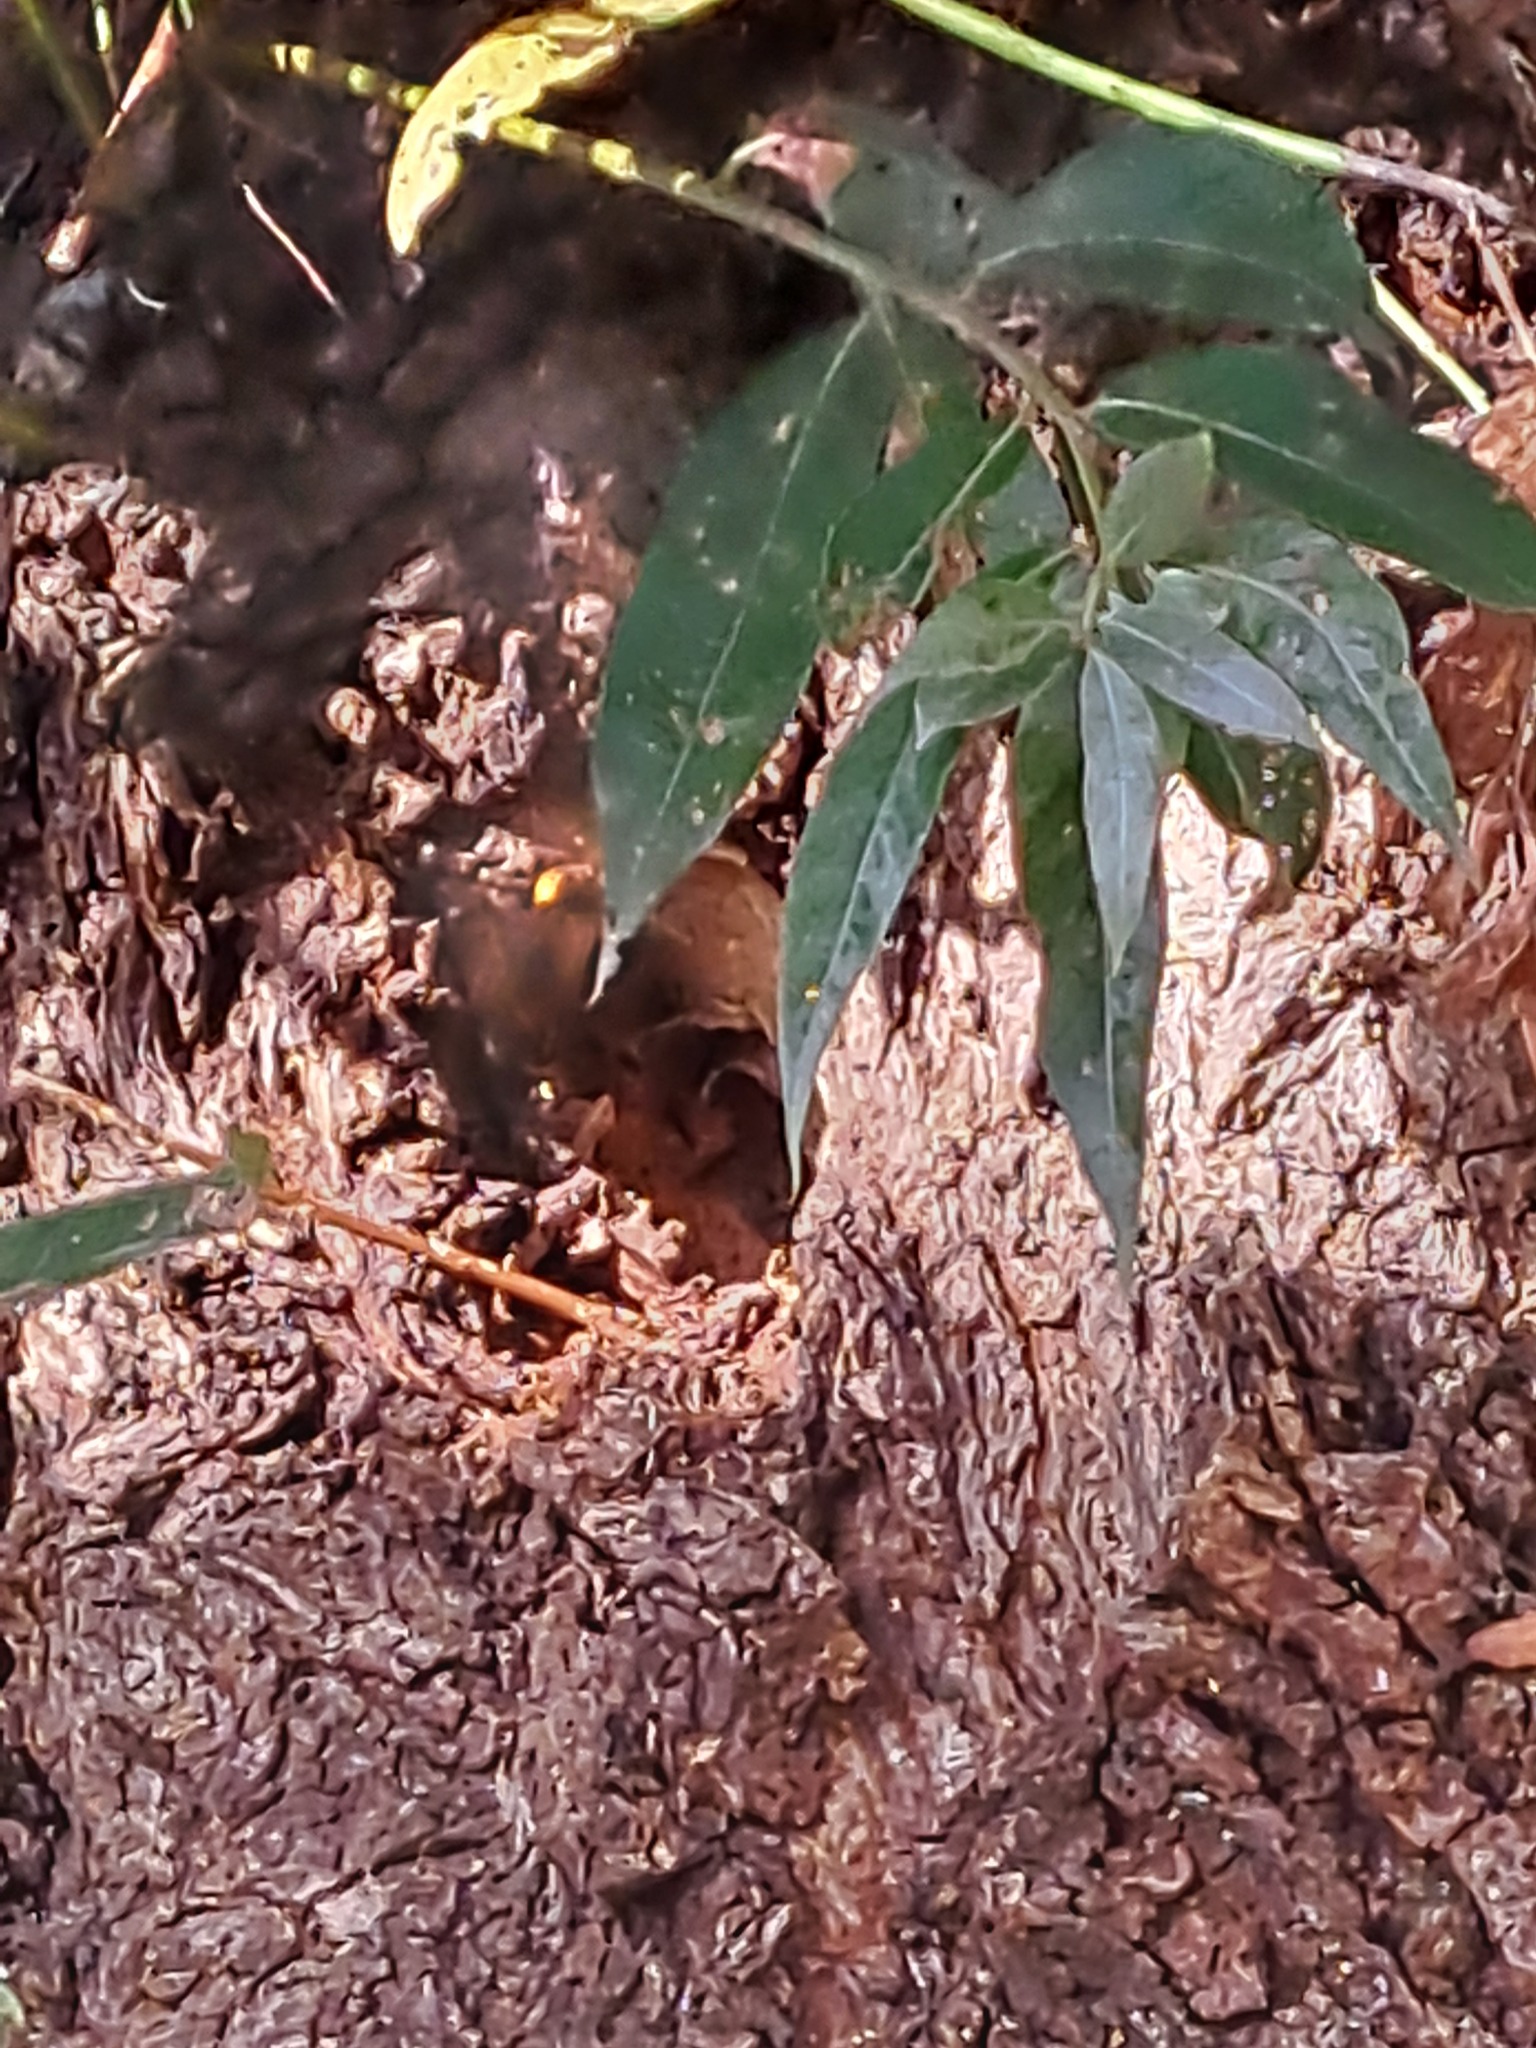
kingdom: Animalia
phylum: Arthropoda
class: Insecta
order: Hymenoptera
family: Vespidae
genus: Vespa
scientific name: Vespa crabro
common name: Hornet
